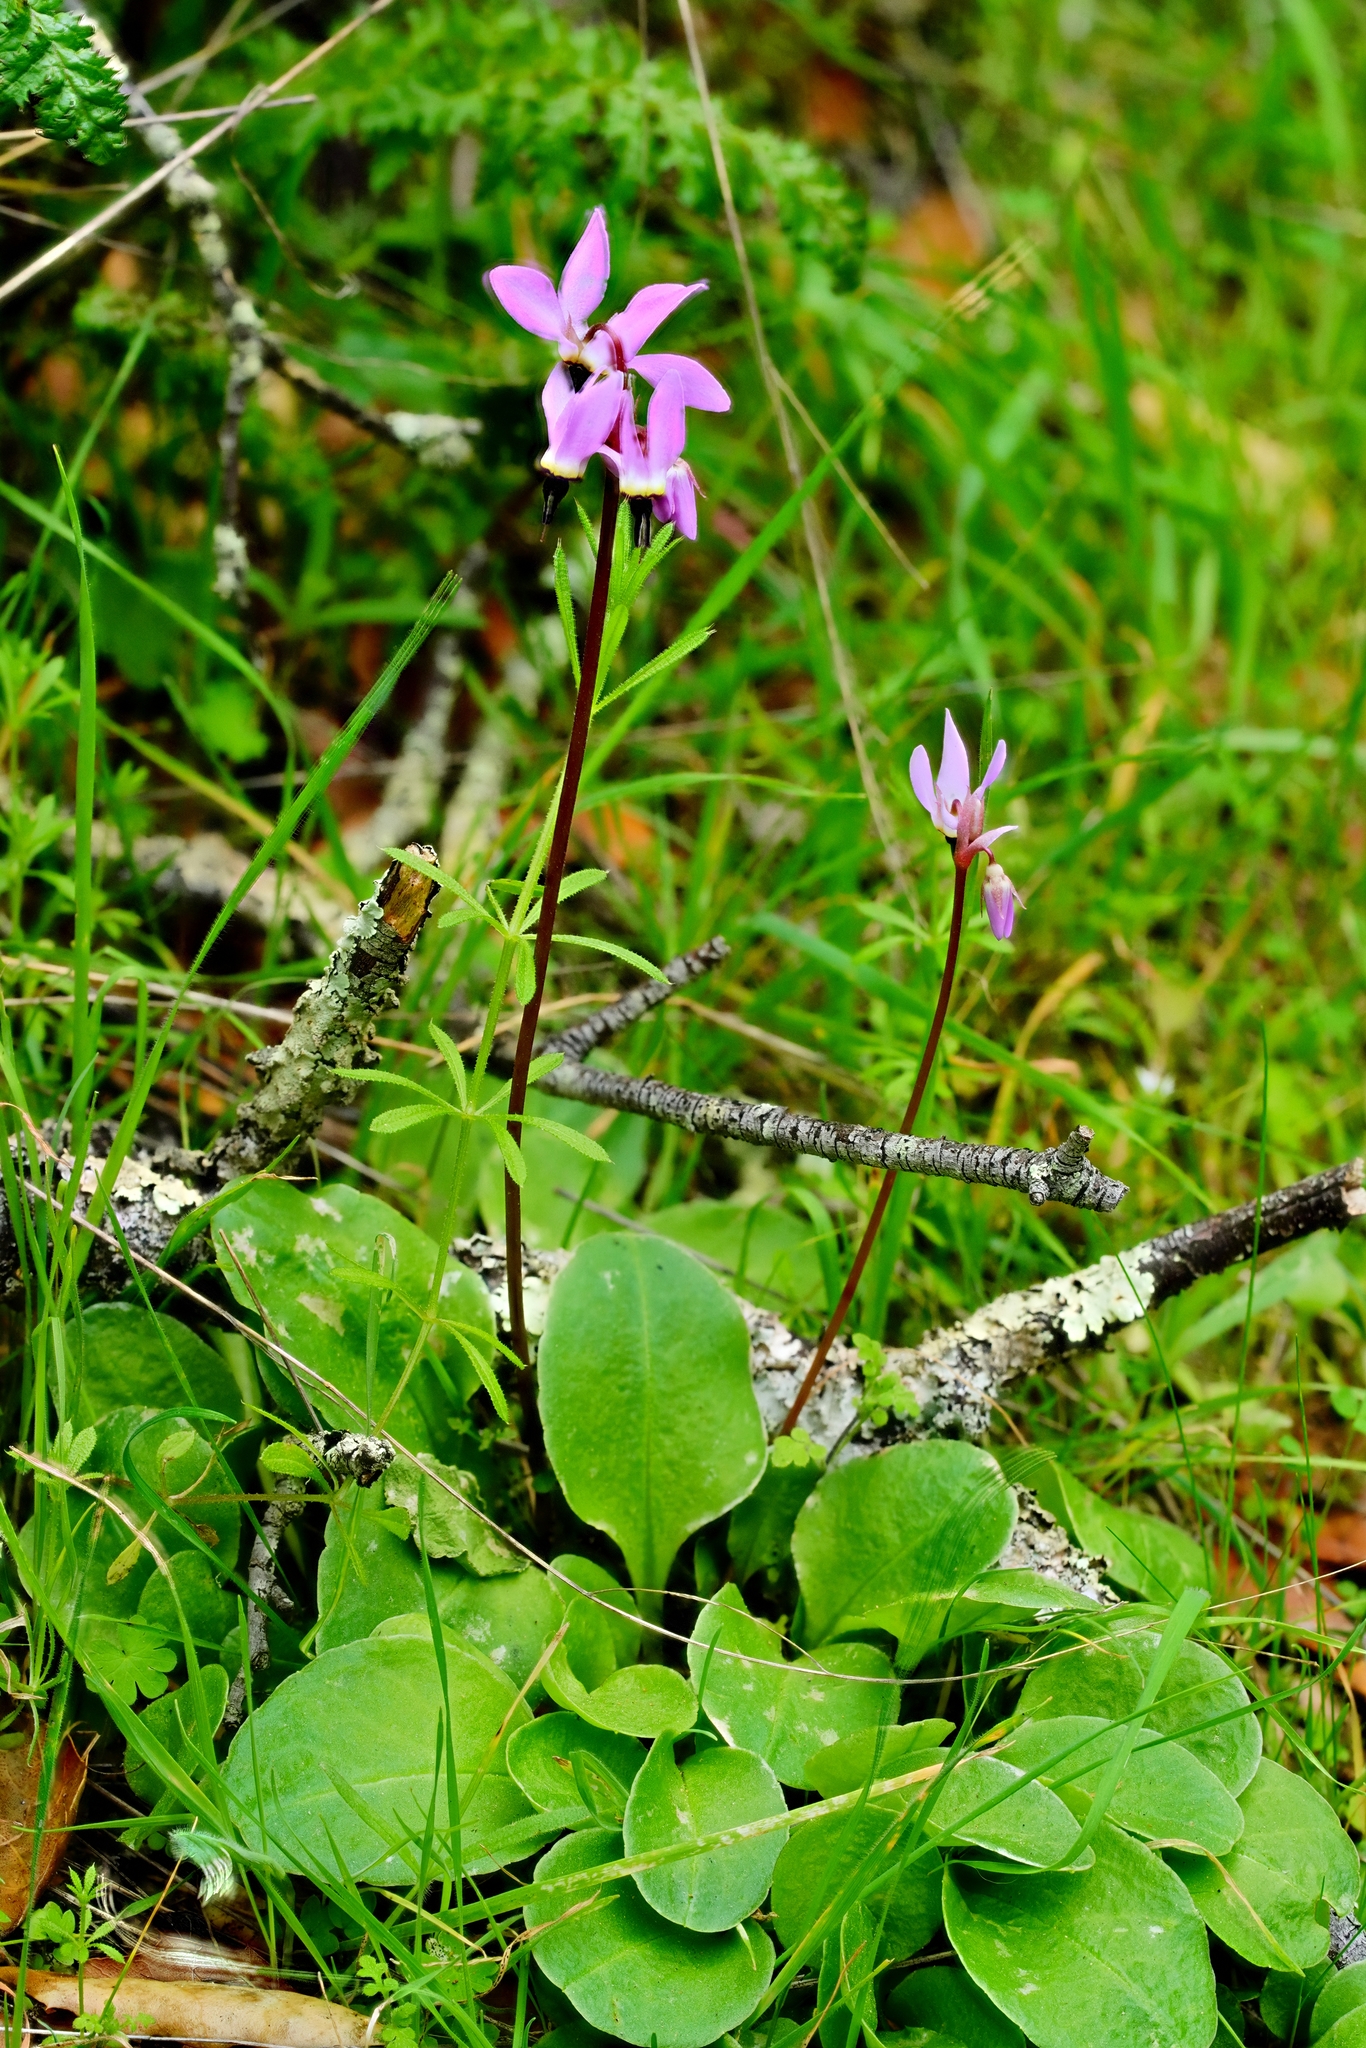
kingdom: Plantae
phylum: Tracheophyta
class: Magnoliopsida
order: Ericales
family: Primulaceae
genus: Dodecatheon
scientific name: Dodecatheon hendersonii
